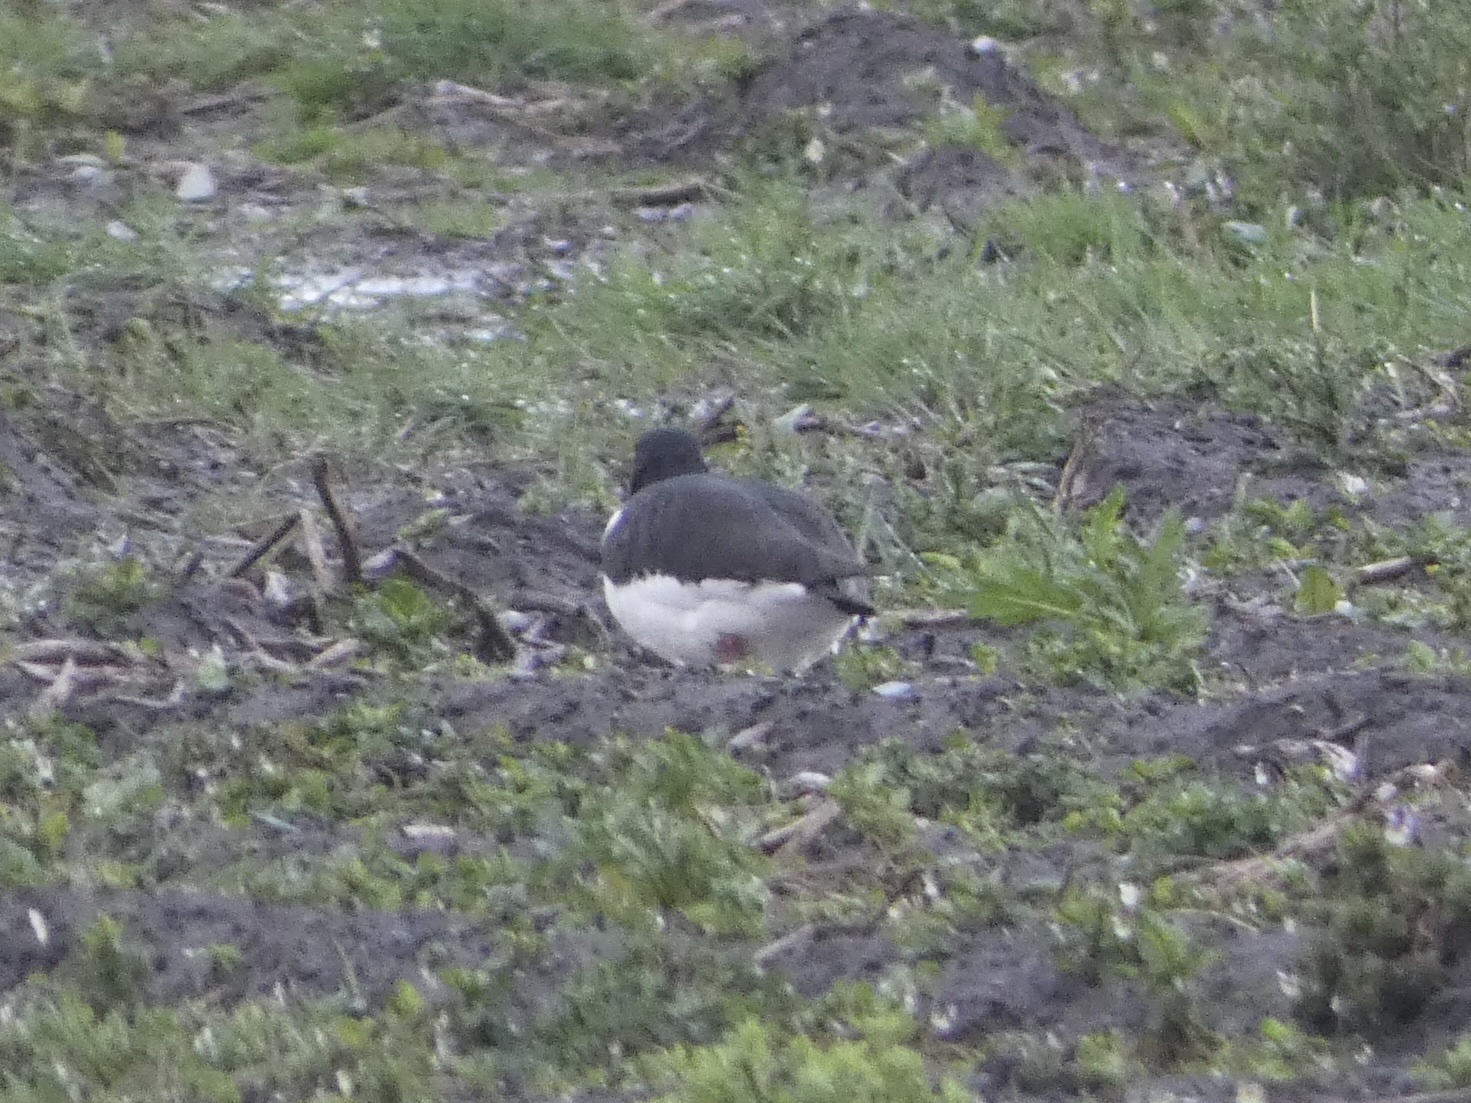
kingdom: Animalia
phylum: Chordata
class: Aves
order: Charadriiformes
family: Haematopodidae
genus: Haematopus
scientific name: Haematopus ostralegus
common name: Eurasian oystercatcher
